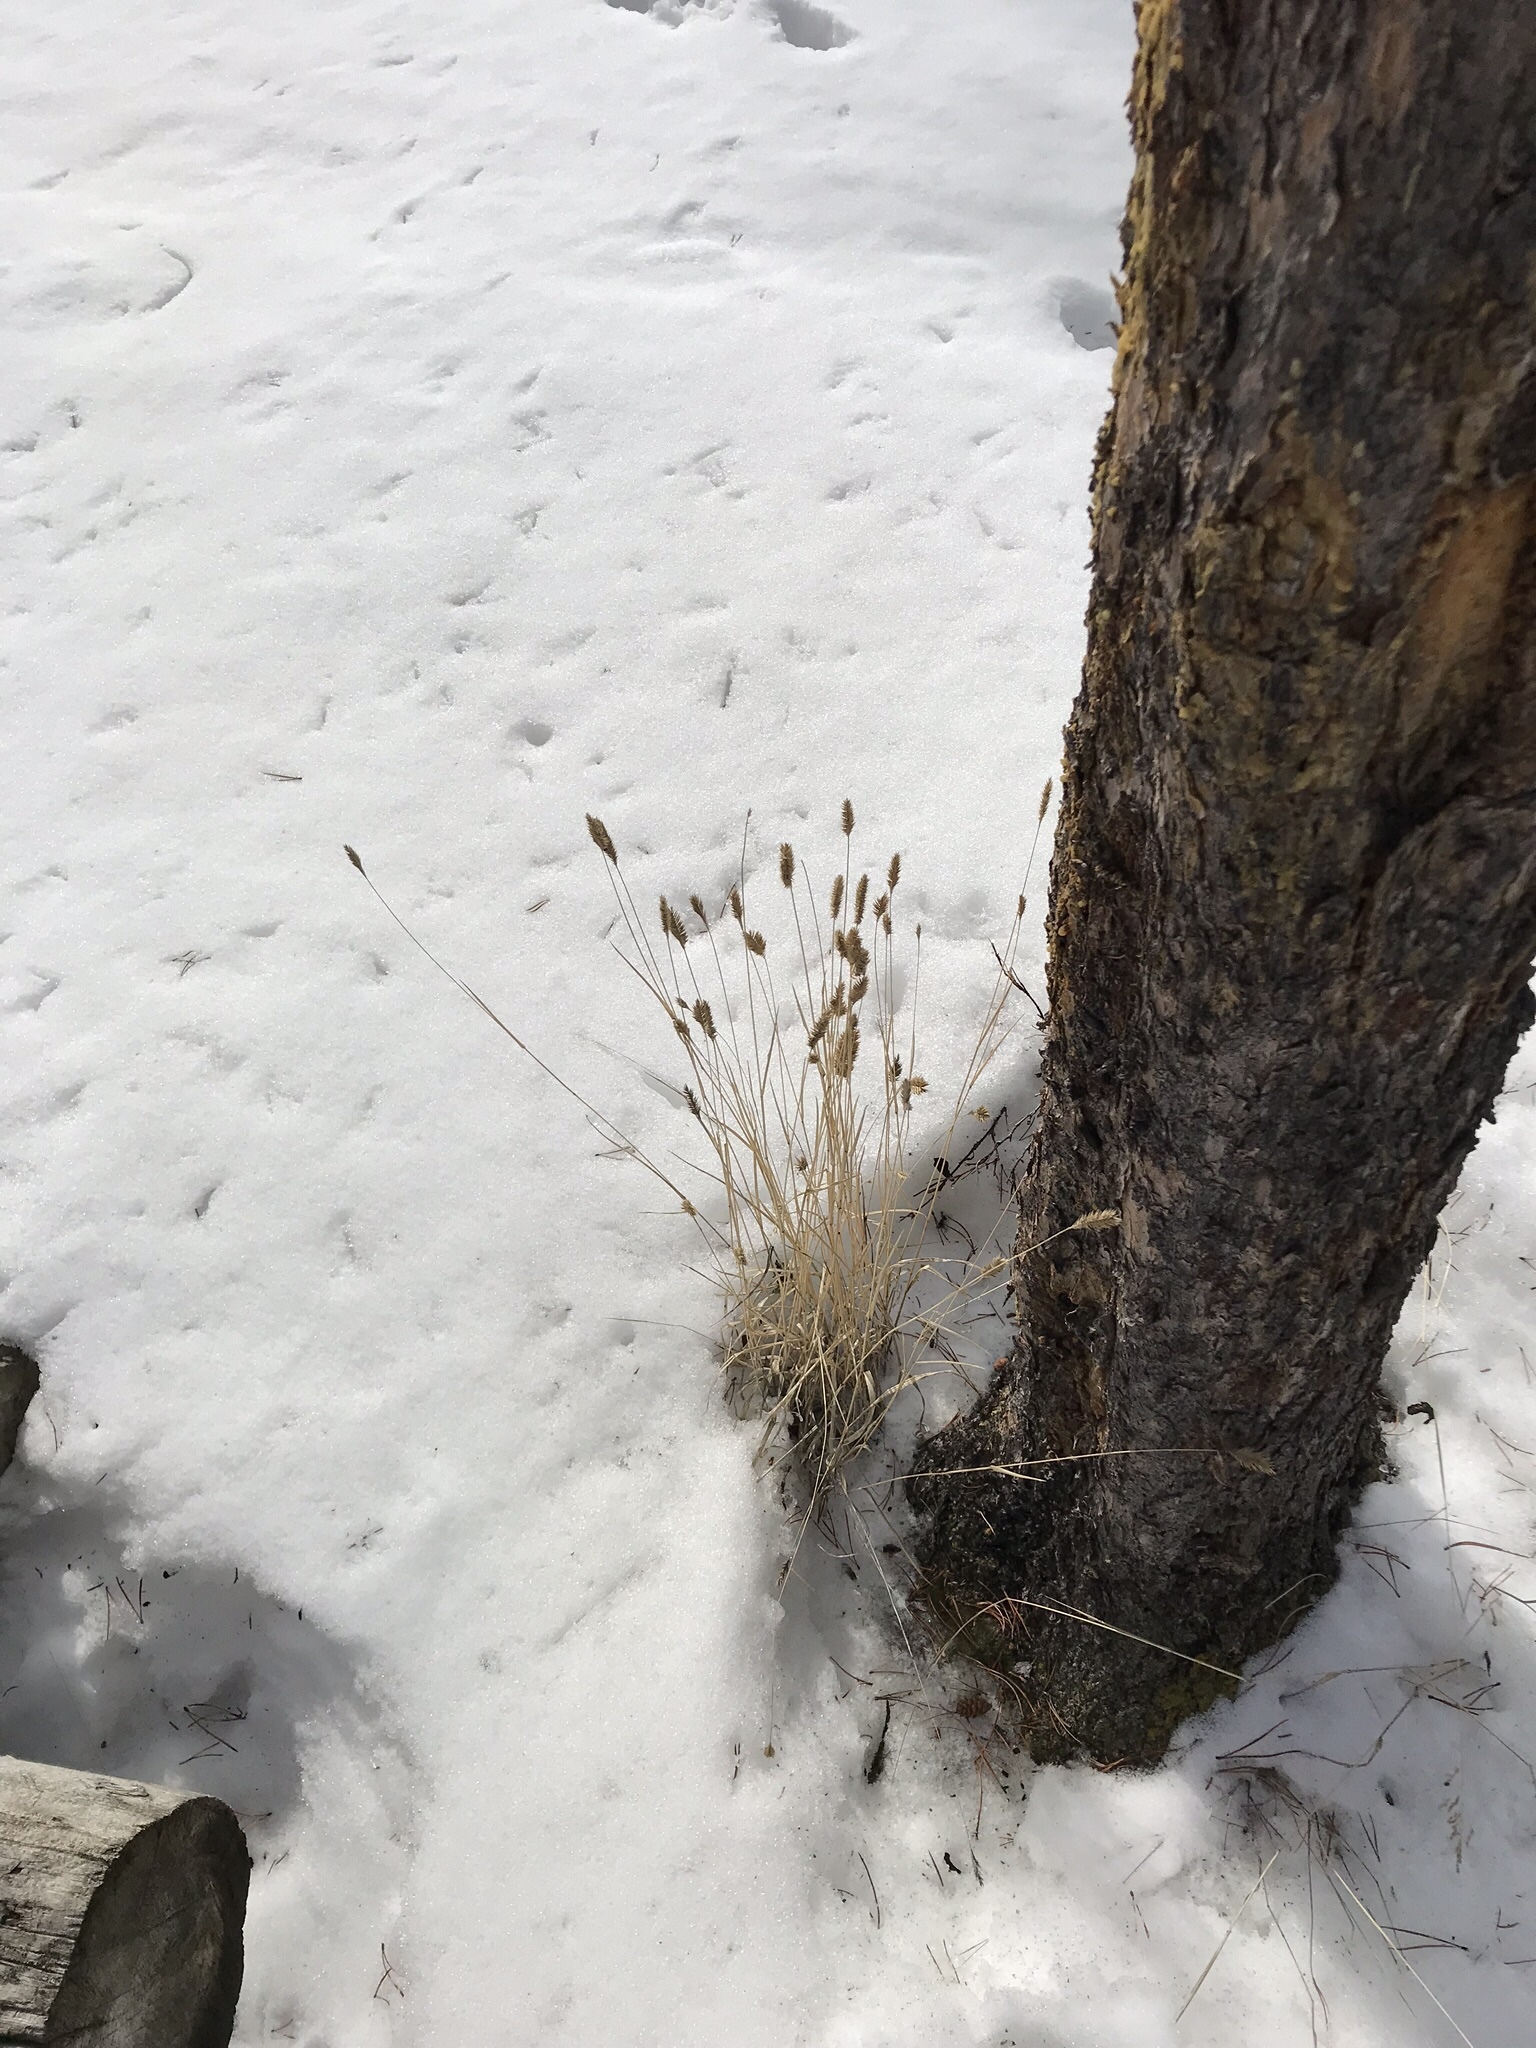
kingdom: Plantae
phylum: Tracheophyta
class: Liliopsida
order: Poales
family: Poaceae
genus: Agropyron
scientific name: Agropyron cristatum
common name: Crested wheatgrass
